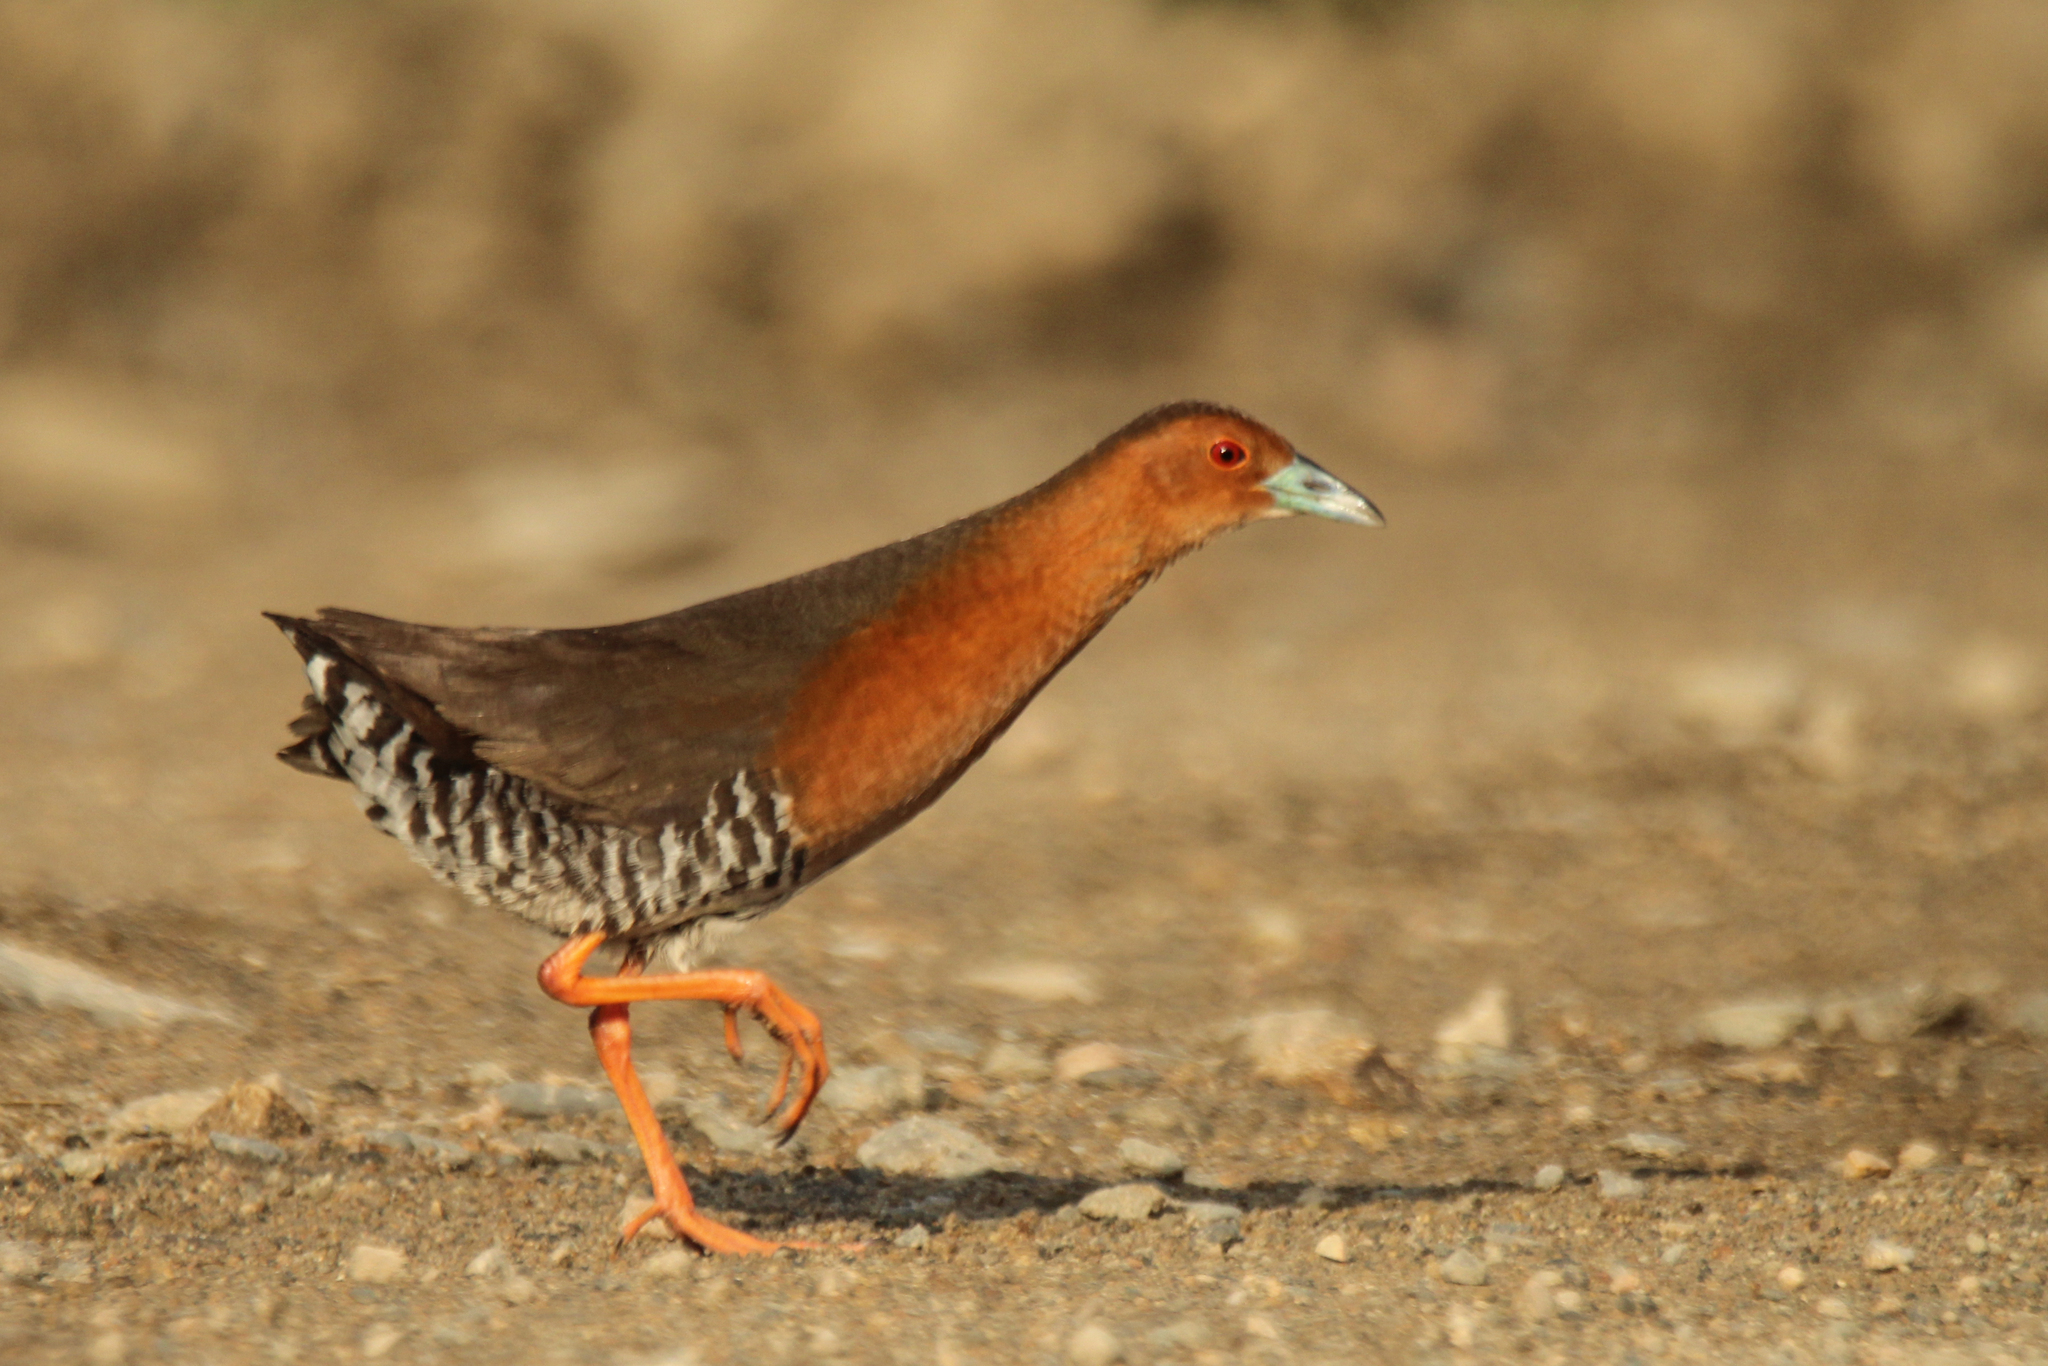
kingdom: Animalia
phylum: Chordata
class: Aves
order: Gruiformes
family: Rallidae
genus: Porzana
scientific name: Porzana paykullii
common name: Band-bellied crake
